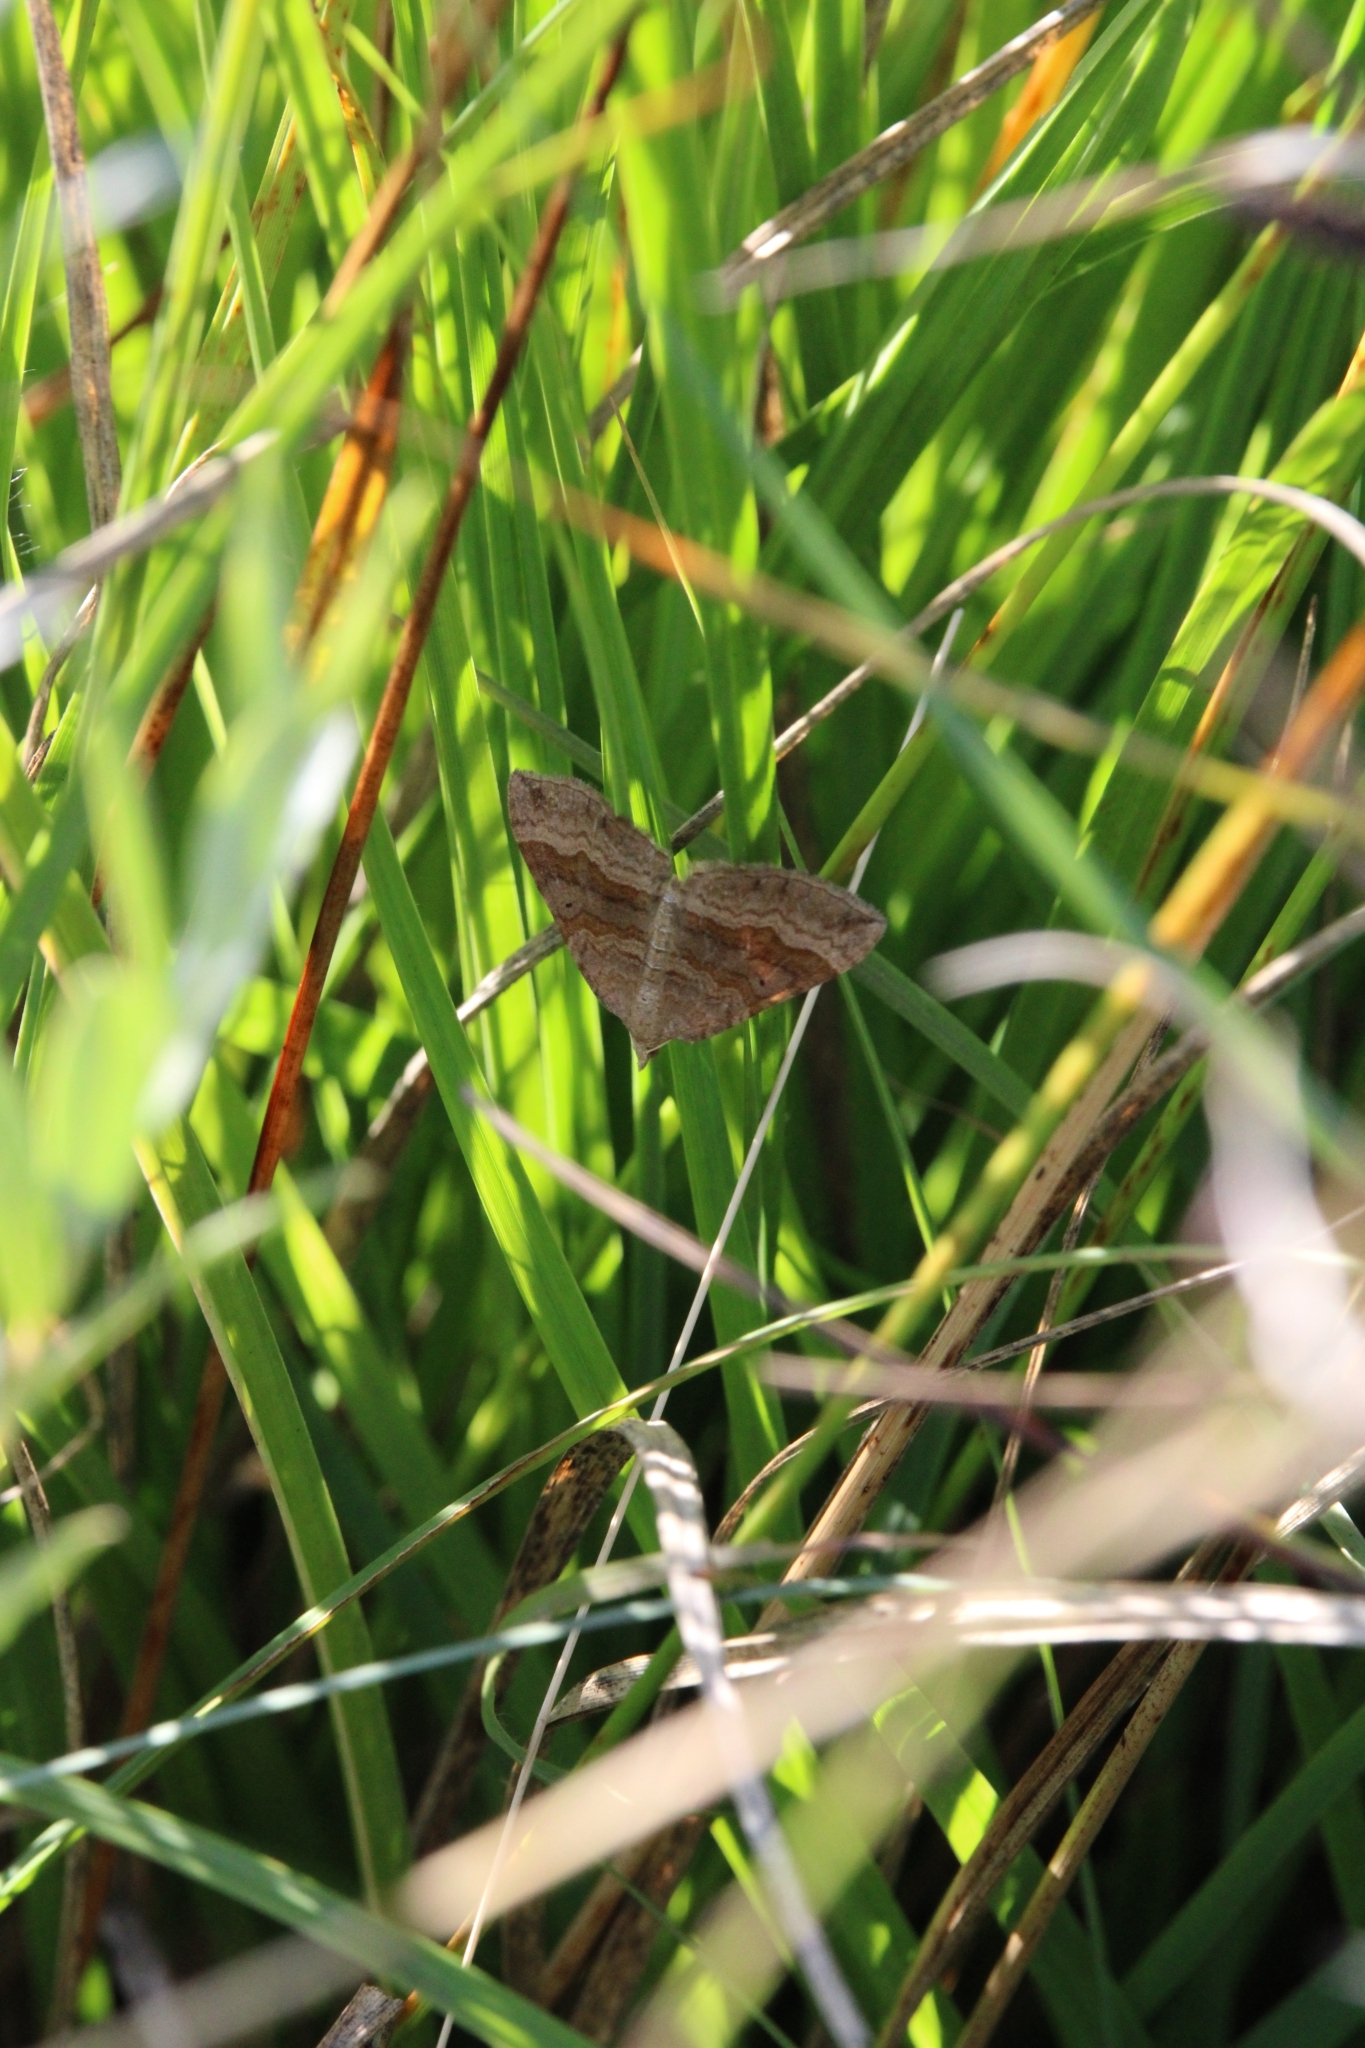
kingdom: Animalia
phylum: Arthropoda
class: Insecta
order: Lepidoptera
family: Geometridae
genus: Scotopteryx
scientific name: Scotopteryx chenopodiata
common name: Shaded broad-bar
